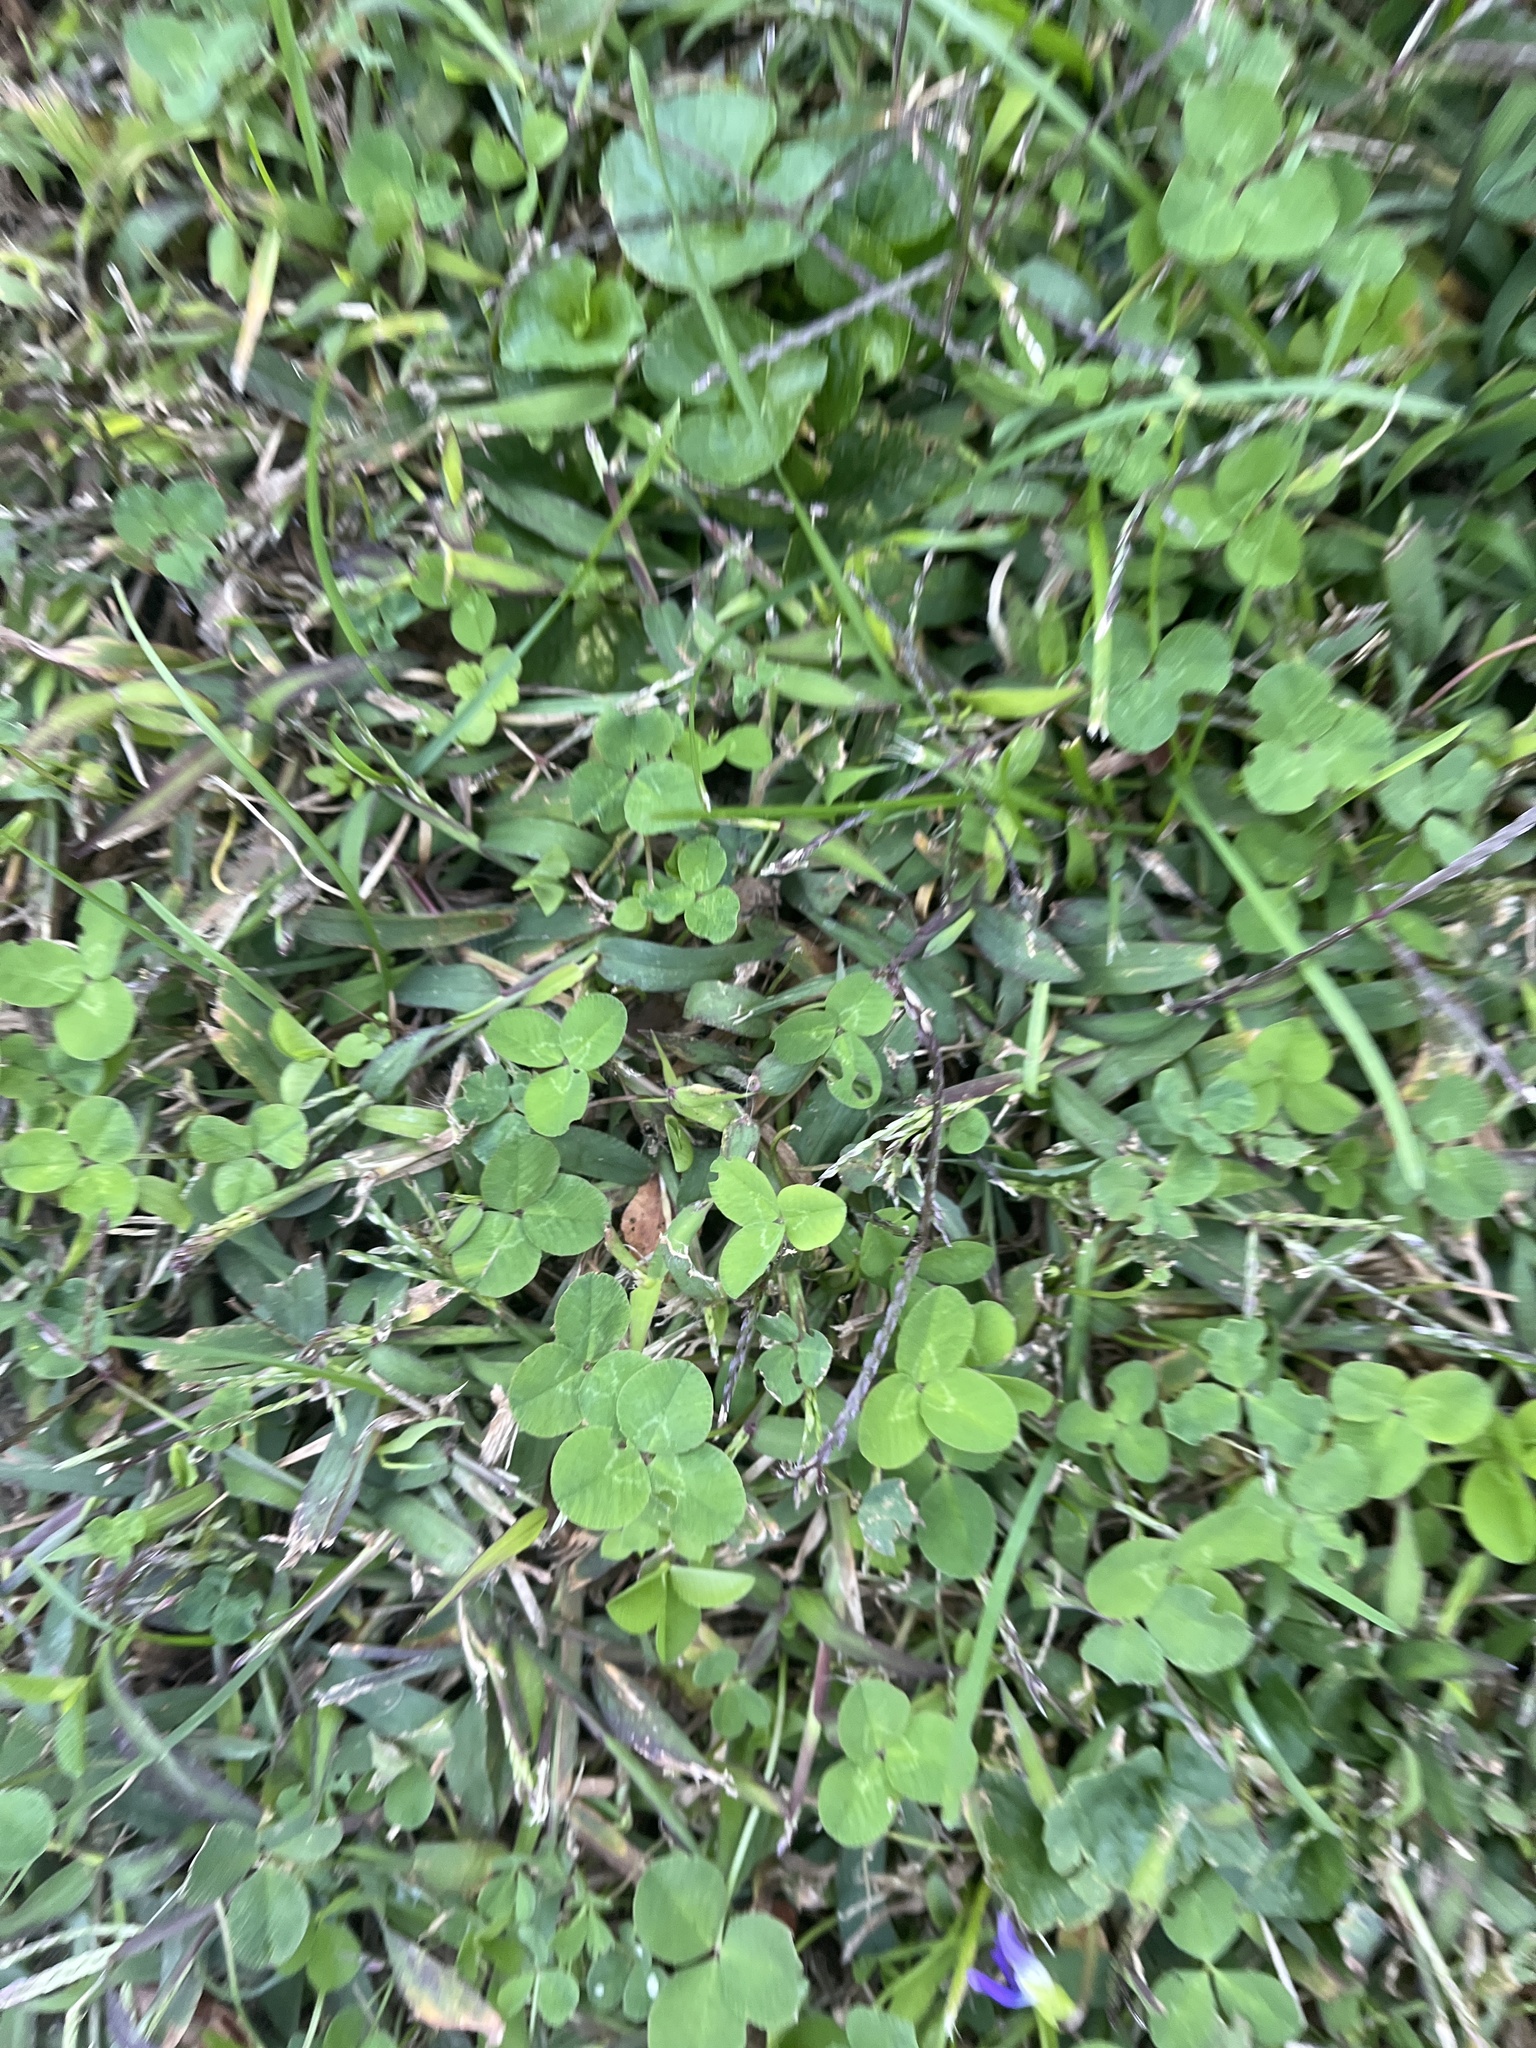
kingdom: Plantae
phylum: Tracheophyta
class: Magnoliopsida
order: Fabales
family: Fabaceae
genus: Trifolium
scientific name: Trifolium repens
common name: White clover
